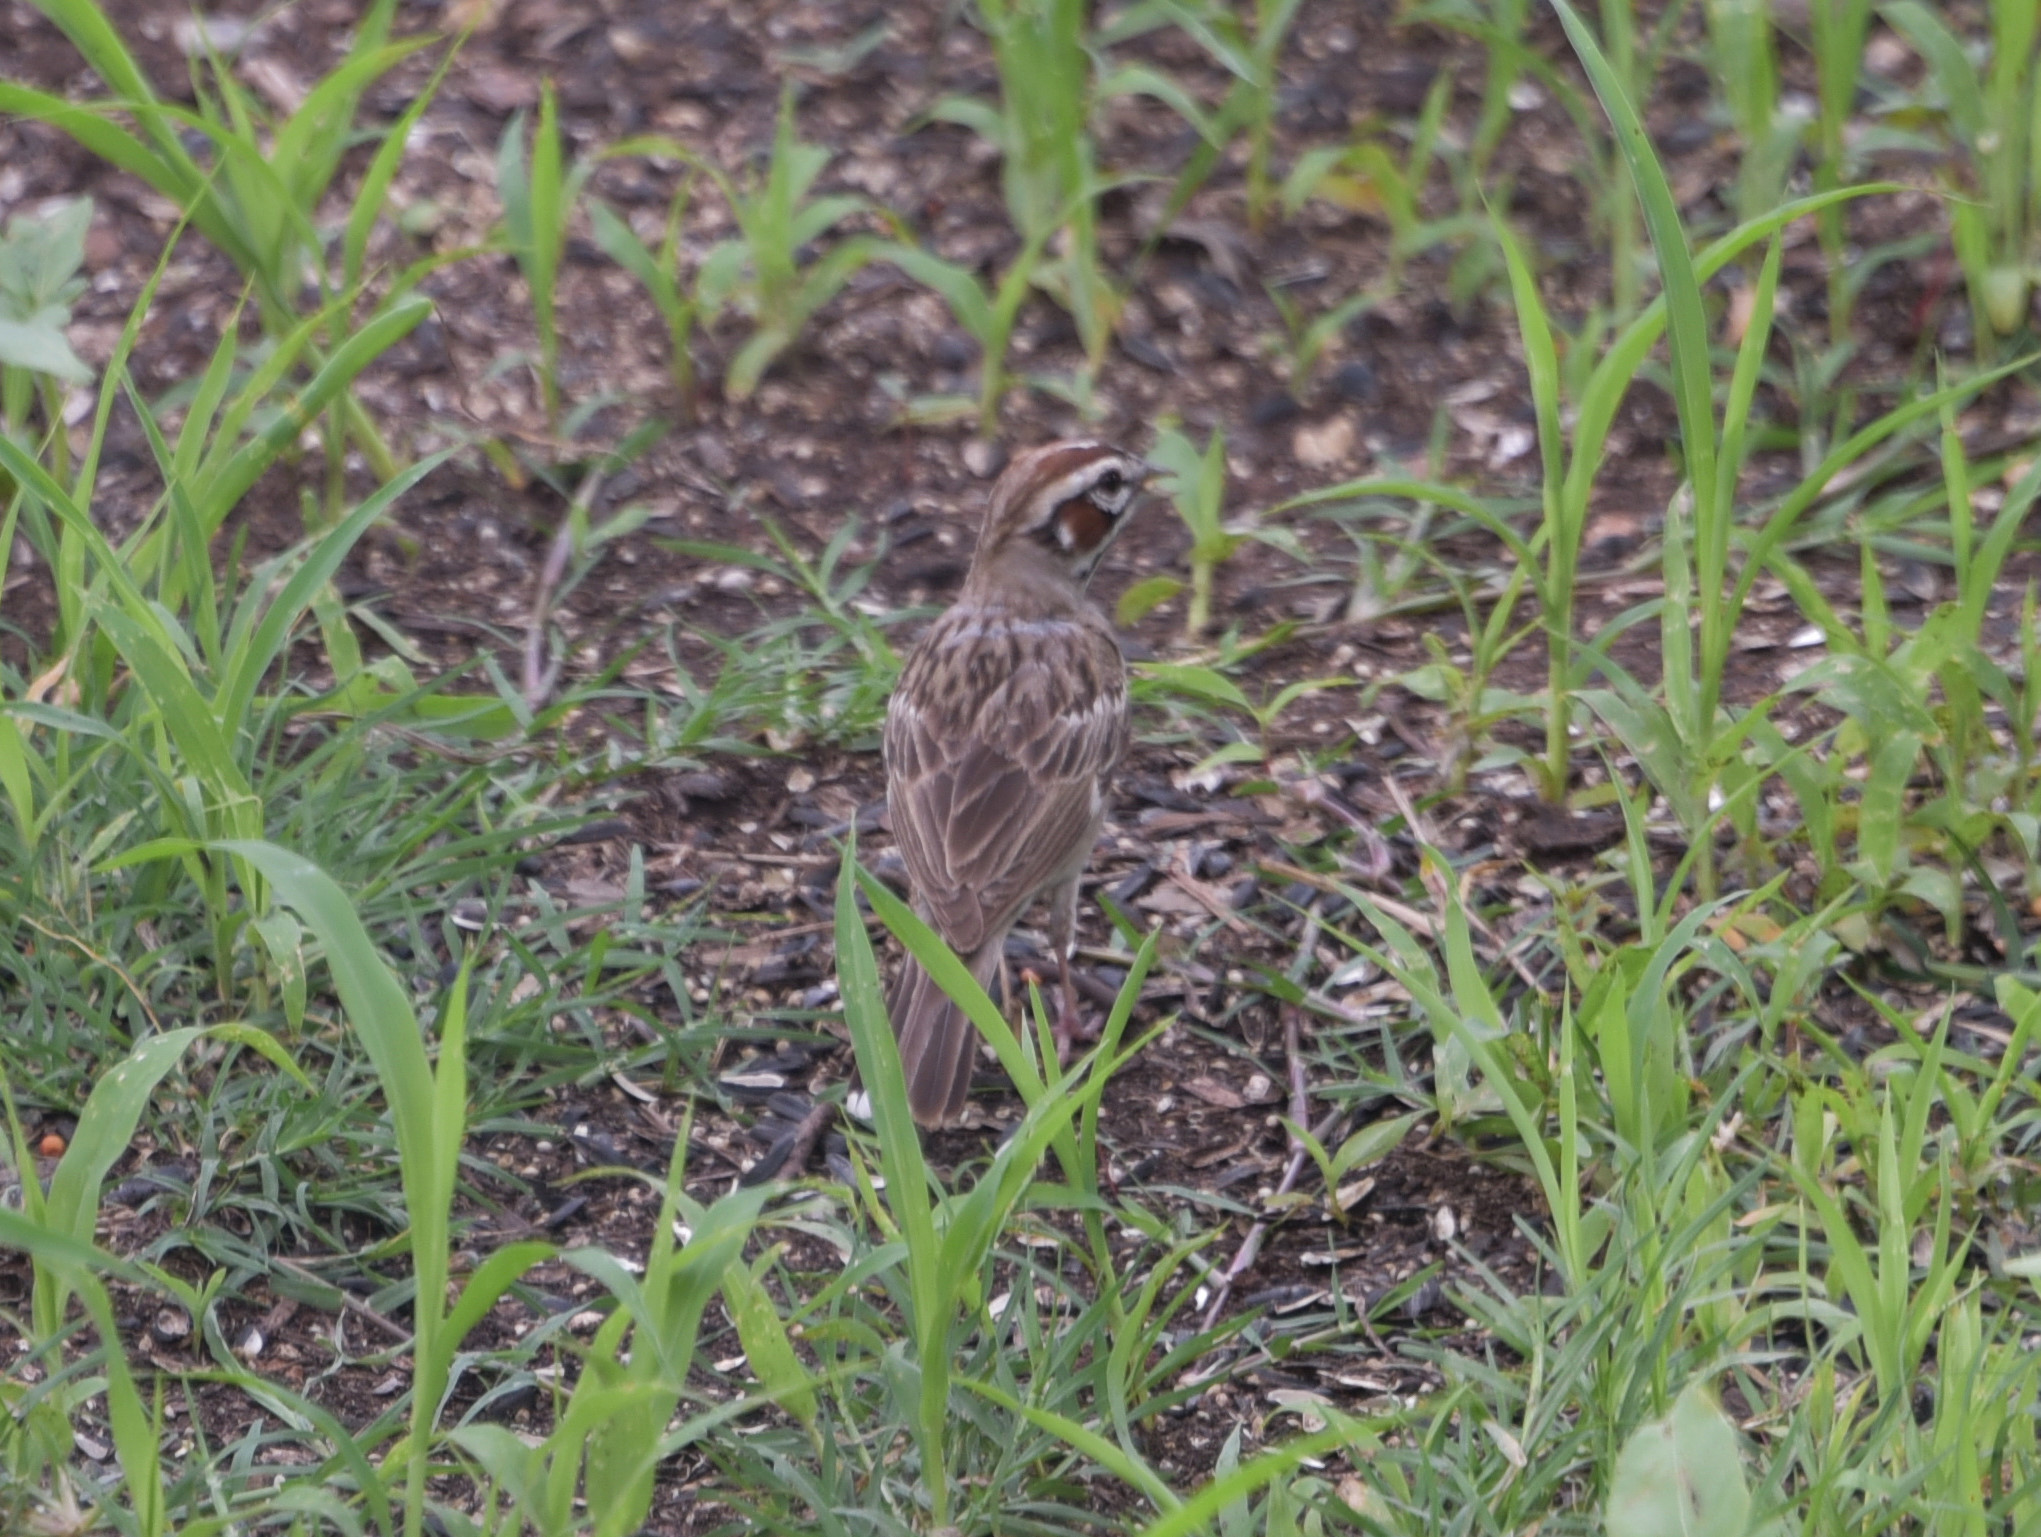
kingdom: Animalia
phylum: Chordata
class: Aves
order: Passeriformes
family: Passerellidae
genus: Chondestes
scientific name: Chondestes grammacus
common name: Lark sparrow
